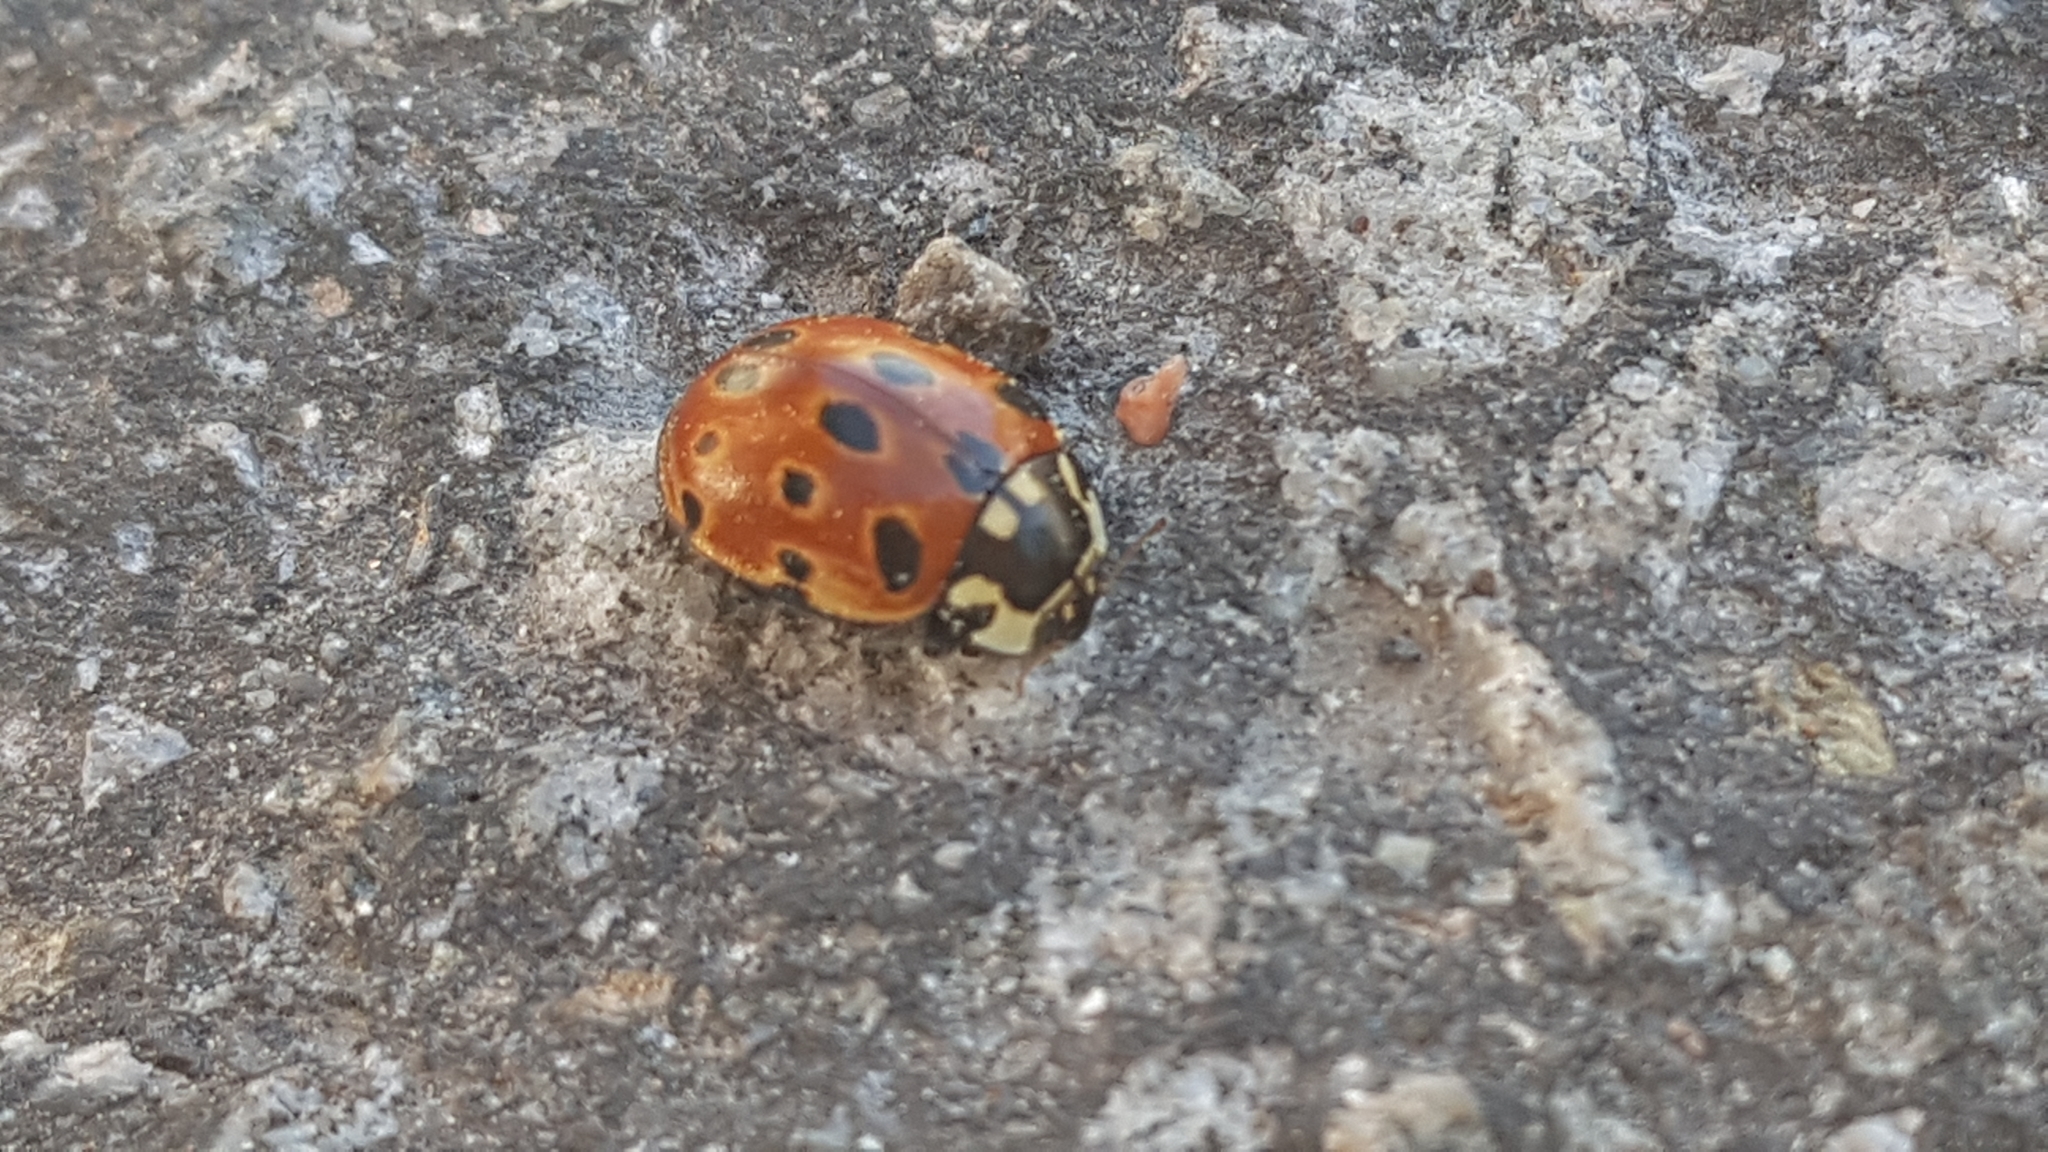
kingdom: Animalia
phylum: Arthropoda
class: Insecta
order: Coleoptera
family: Coccinellidae
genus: Anatis
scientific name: Anatis ocellata
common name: Eyed ladybird
